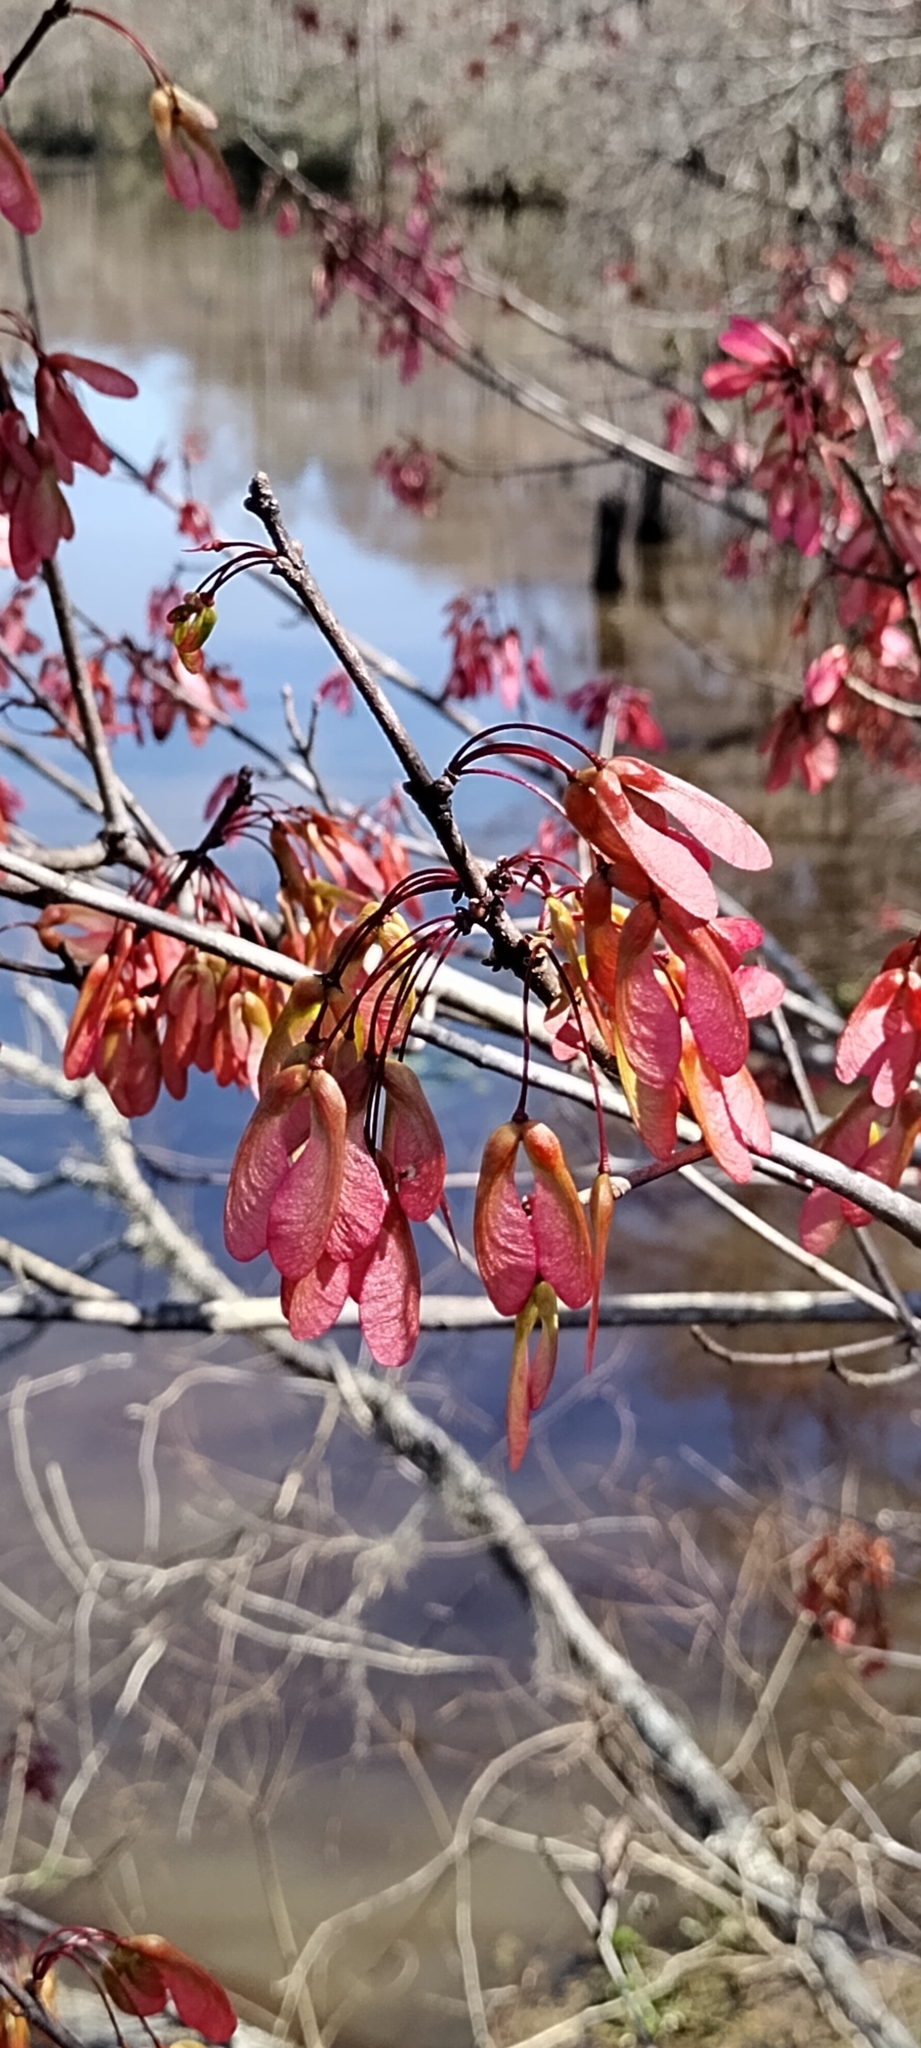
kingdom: Plantae
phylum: Tracheophyta
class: Magnoliopsida
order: Sapindales
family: Sapindaceae
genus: Acer
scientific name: Acer rubrum
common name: Red maple
